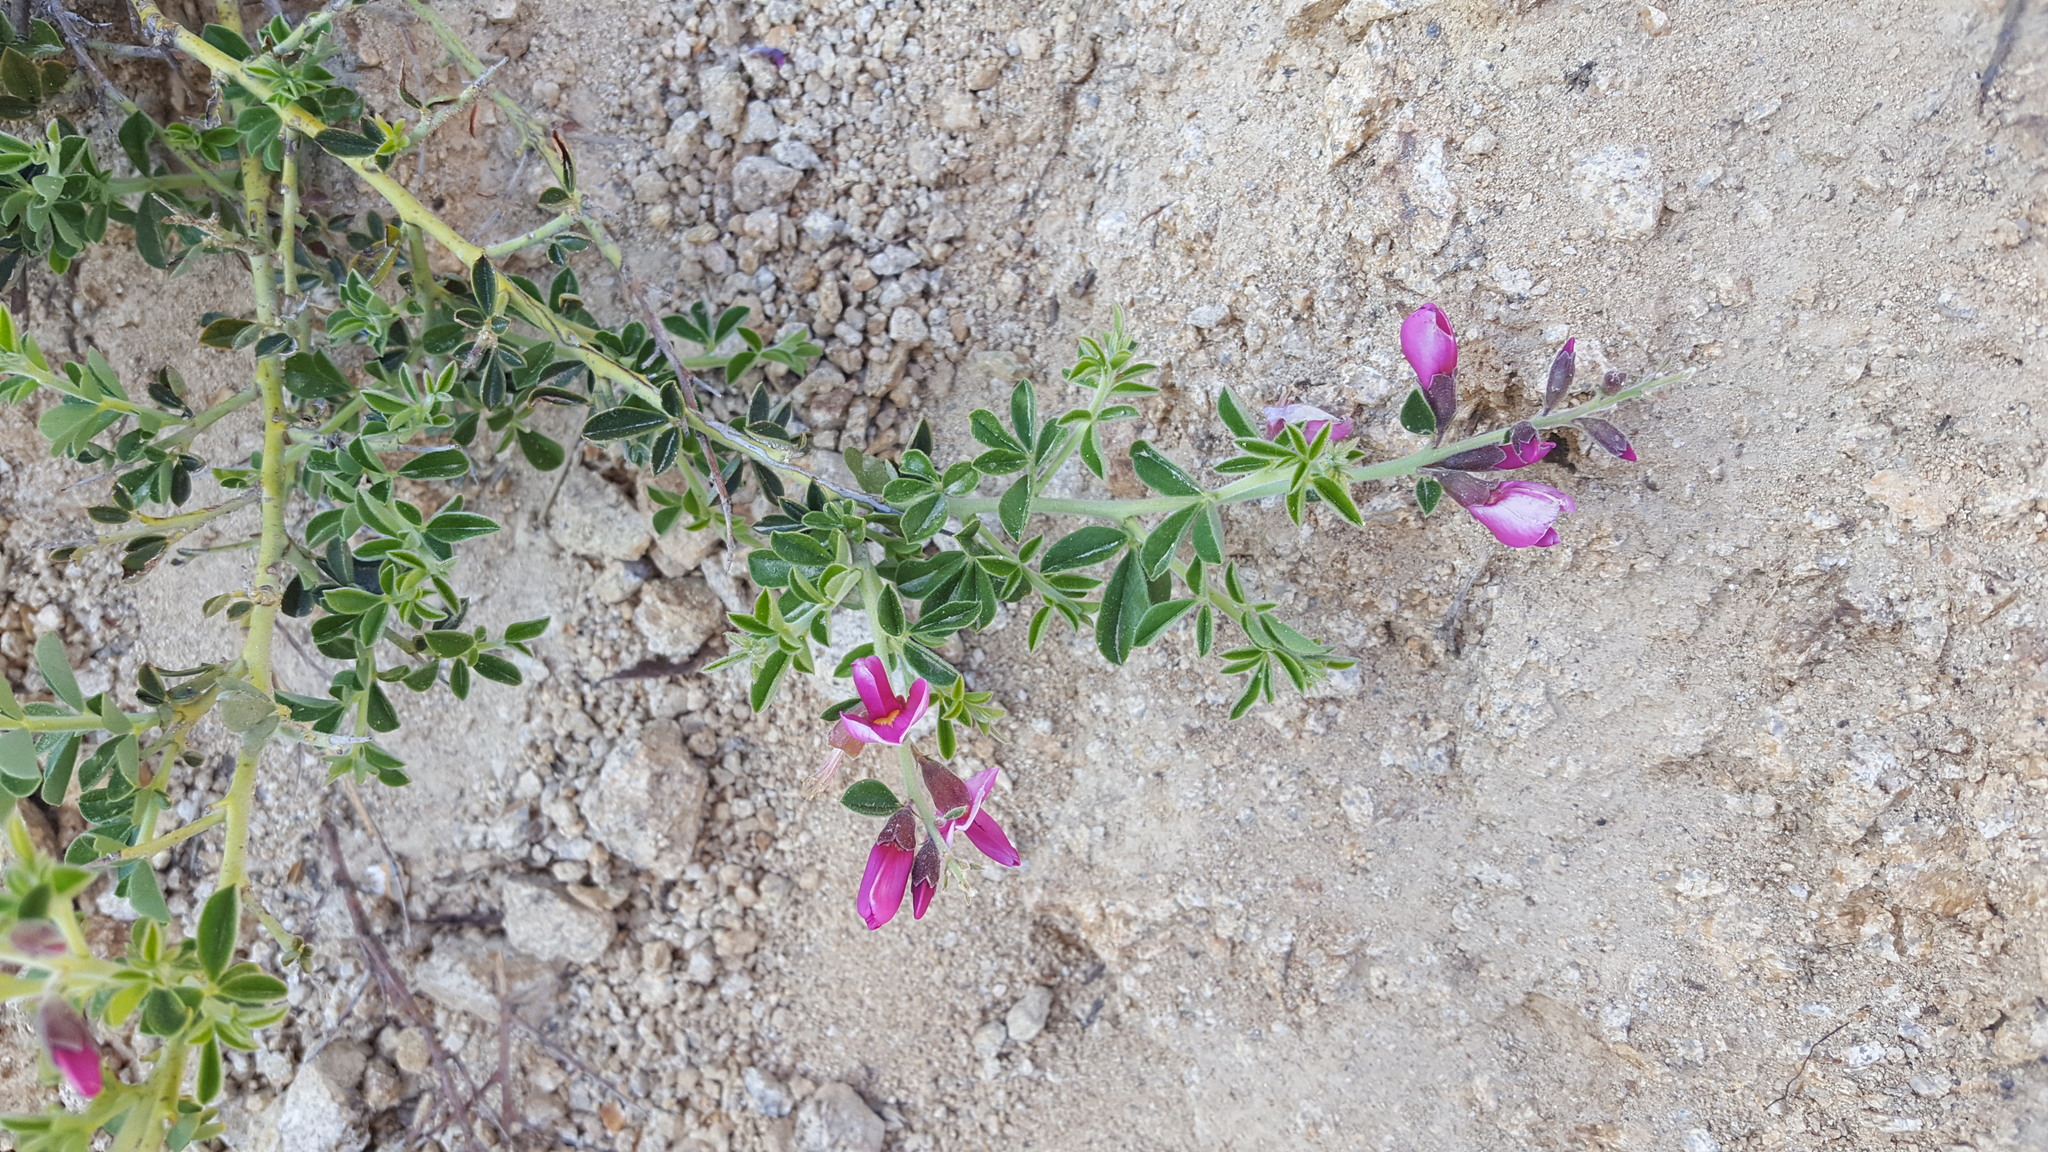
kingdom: Plantae
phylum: Tracheophyta
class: Magnoliopsida
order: Fabales
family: Fabaceae
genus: Pickeringia
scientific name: Pickeringia montana
